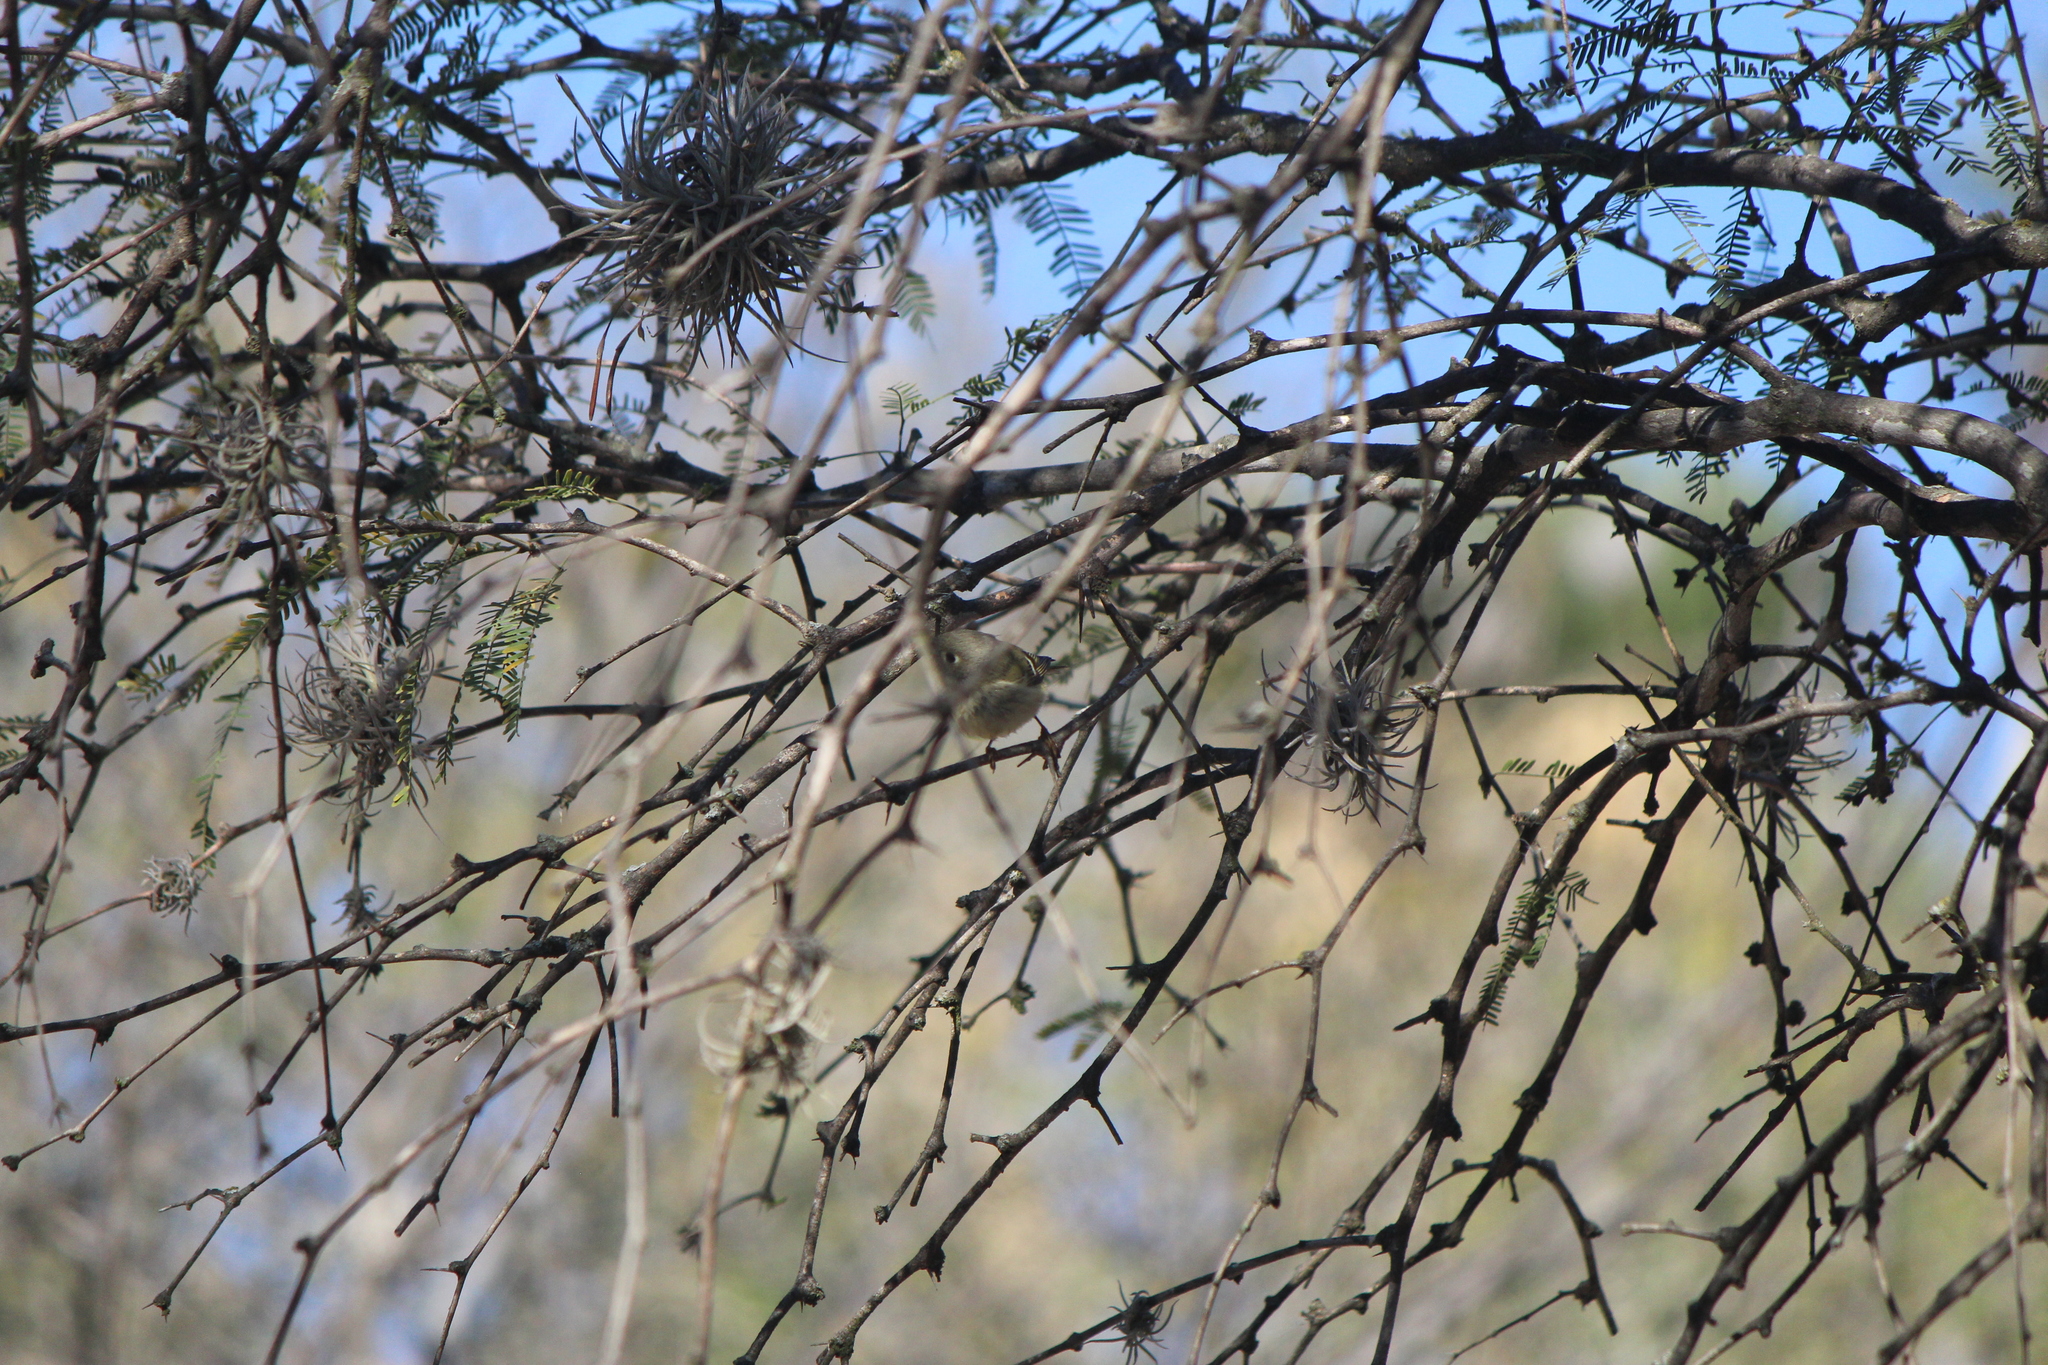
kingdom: Animalia
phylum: Chordata
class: Aves
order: Passeriformes
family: Regulidae
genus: Regulus
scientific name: Regulus calendula
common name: Ruby-crowned kinglet
